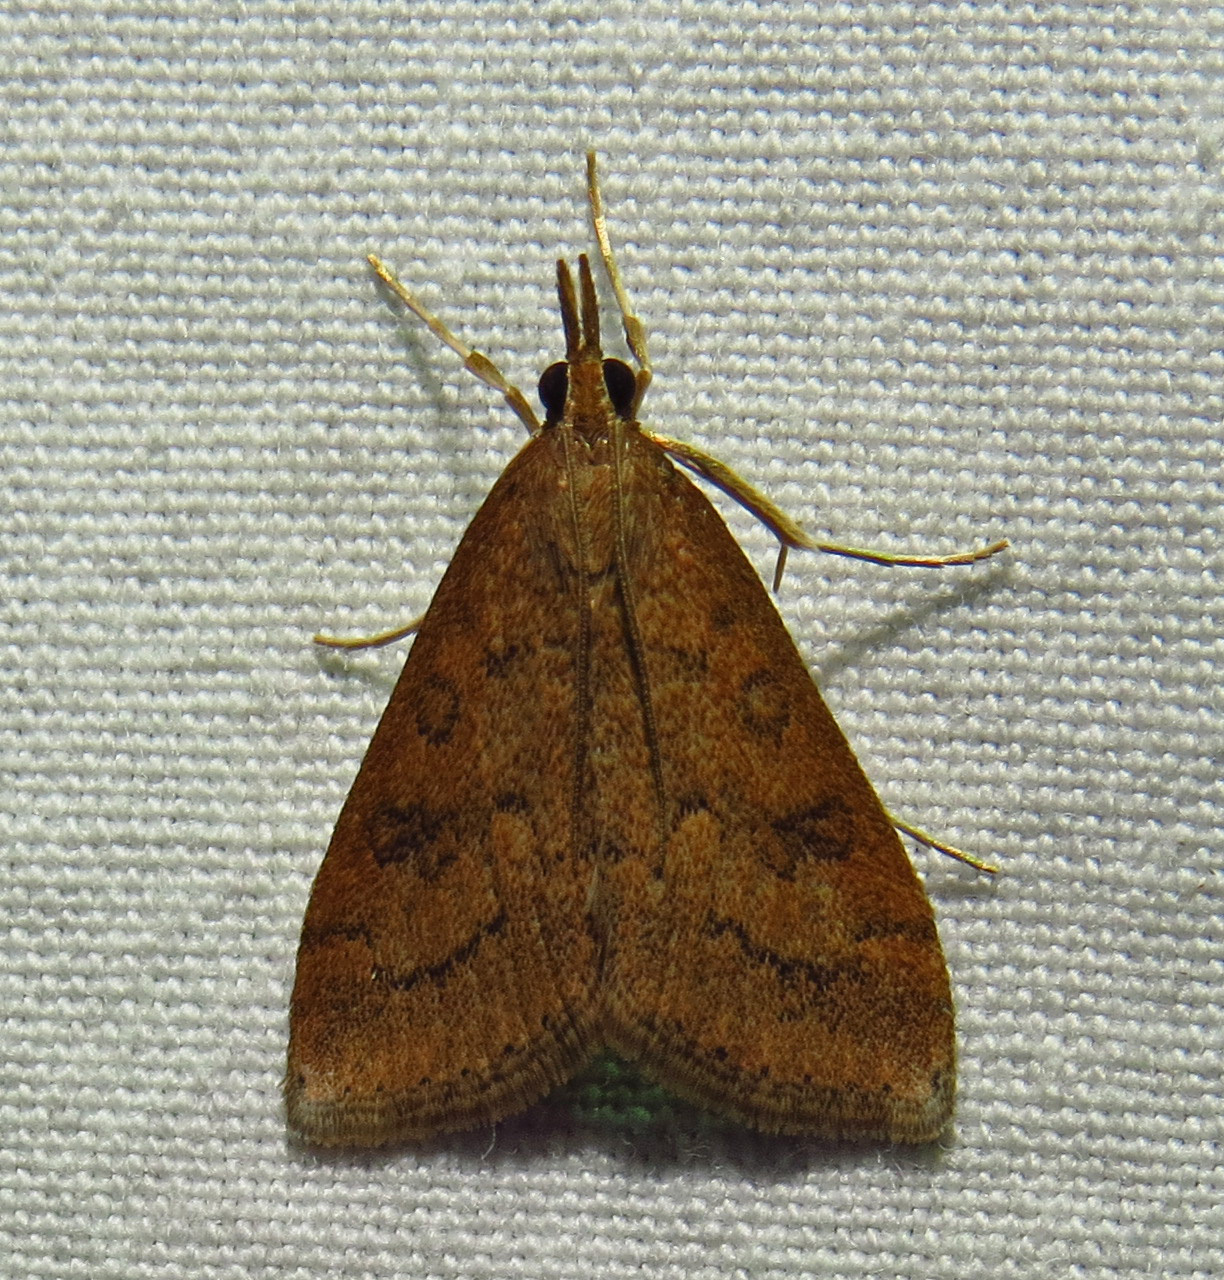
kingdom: Animalia
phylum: Arthropoda
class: Insecta
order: Lepidoptera
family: Crambidae
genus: Udea
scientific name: Udea rubigalis
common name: Celery leaftier moth
